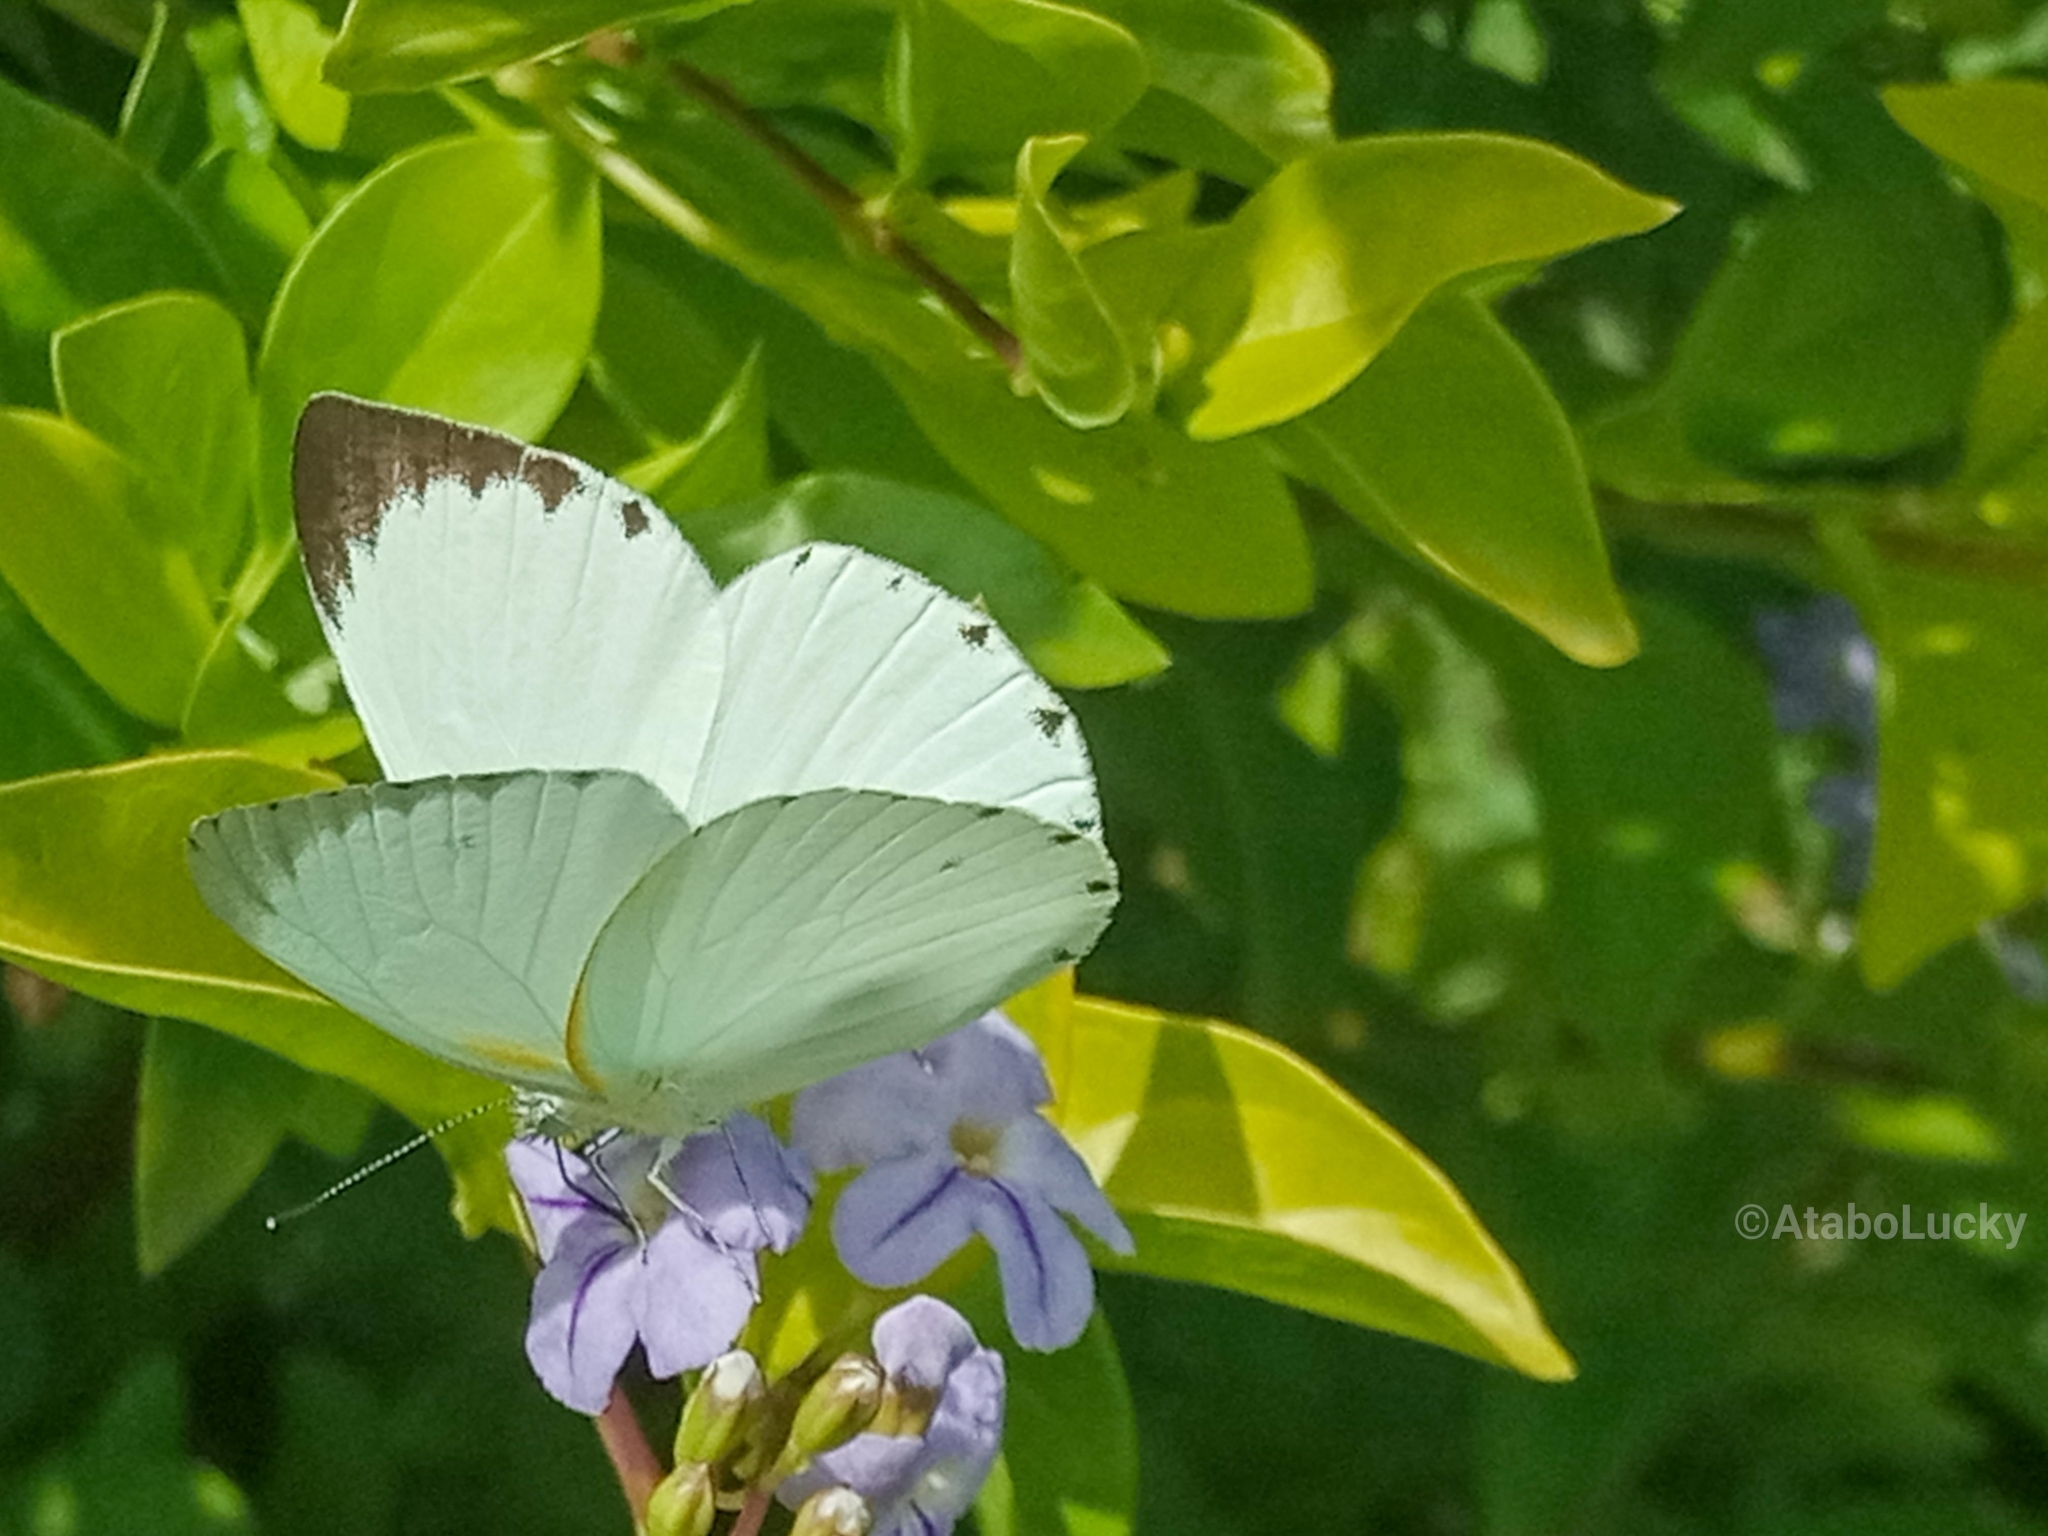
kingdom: Animalia
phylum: Arthropoda
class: Insecta
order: Lepidoptera
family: Pieridae
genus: Glutophrissa
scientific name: Glutophrissa epaphia
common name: African albatross
